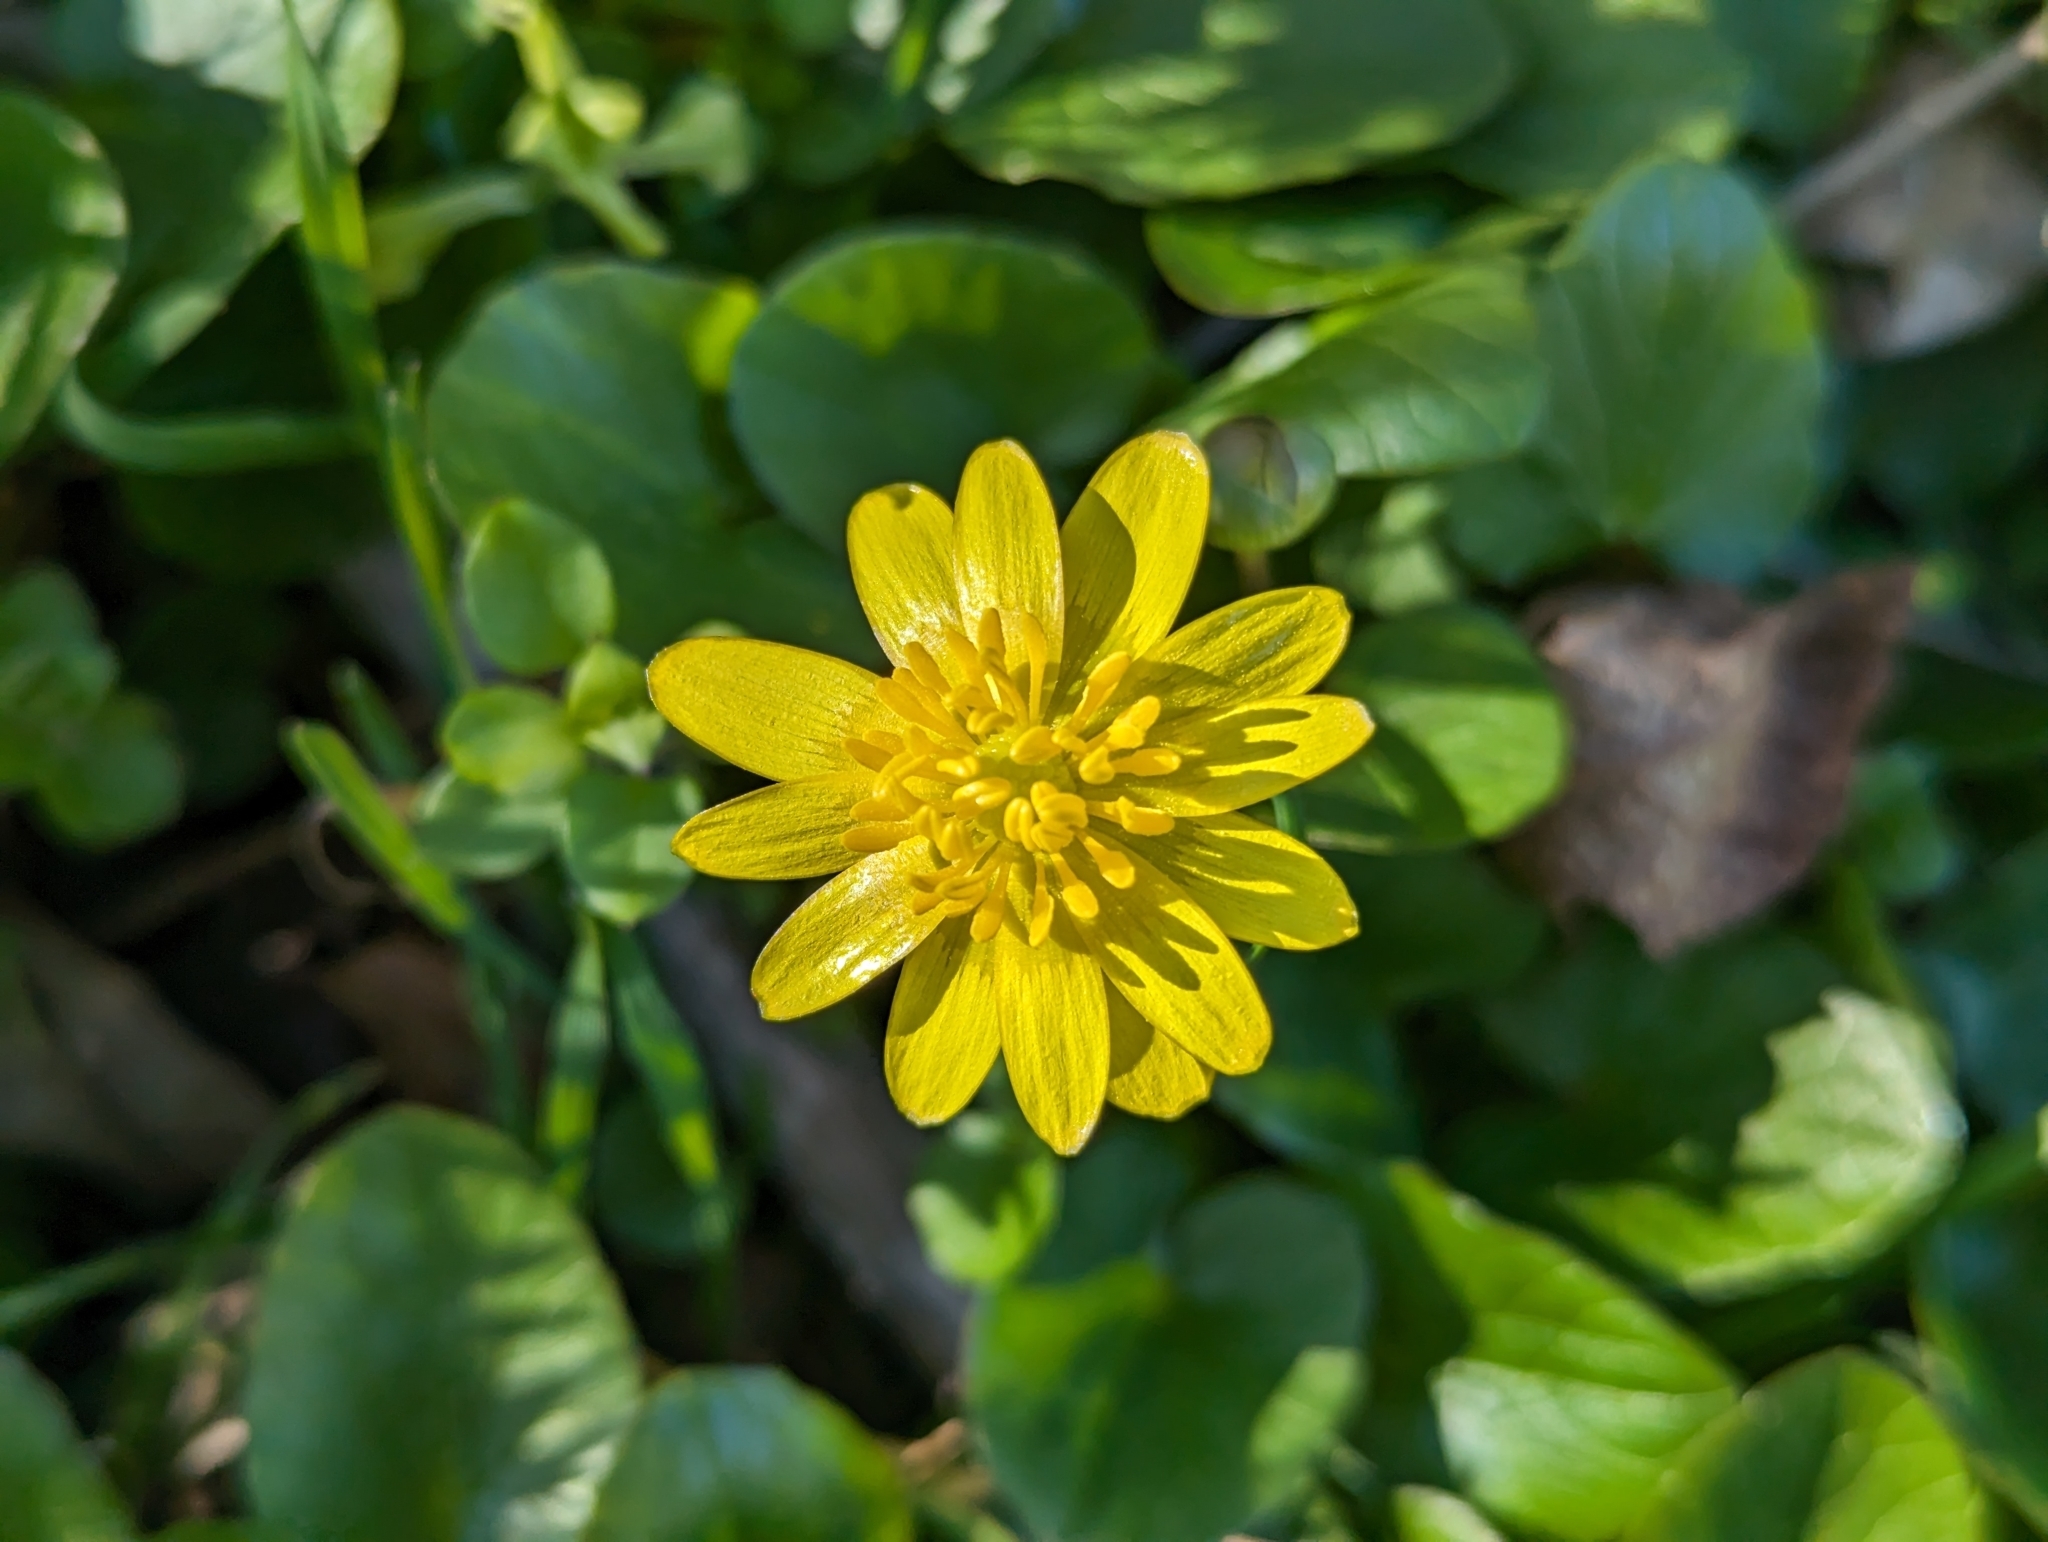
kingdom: Plantae
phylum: Tracheophyta
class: Magnoliopsida
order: Ranunculales
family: Ranunculaceae
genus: Ficaria
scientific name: Ficaria verna
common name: Lesser celandine
